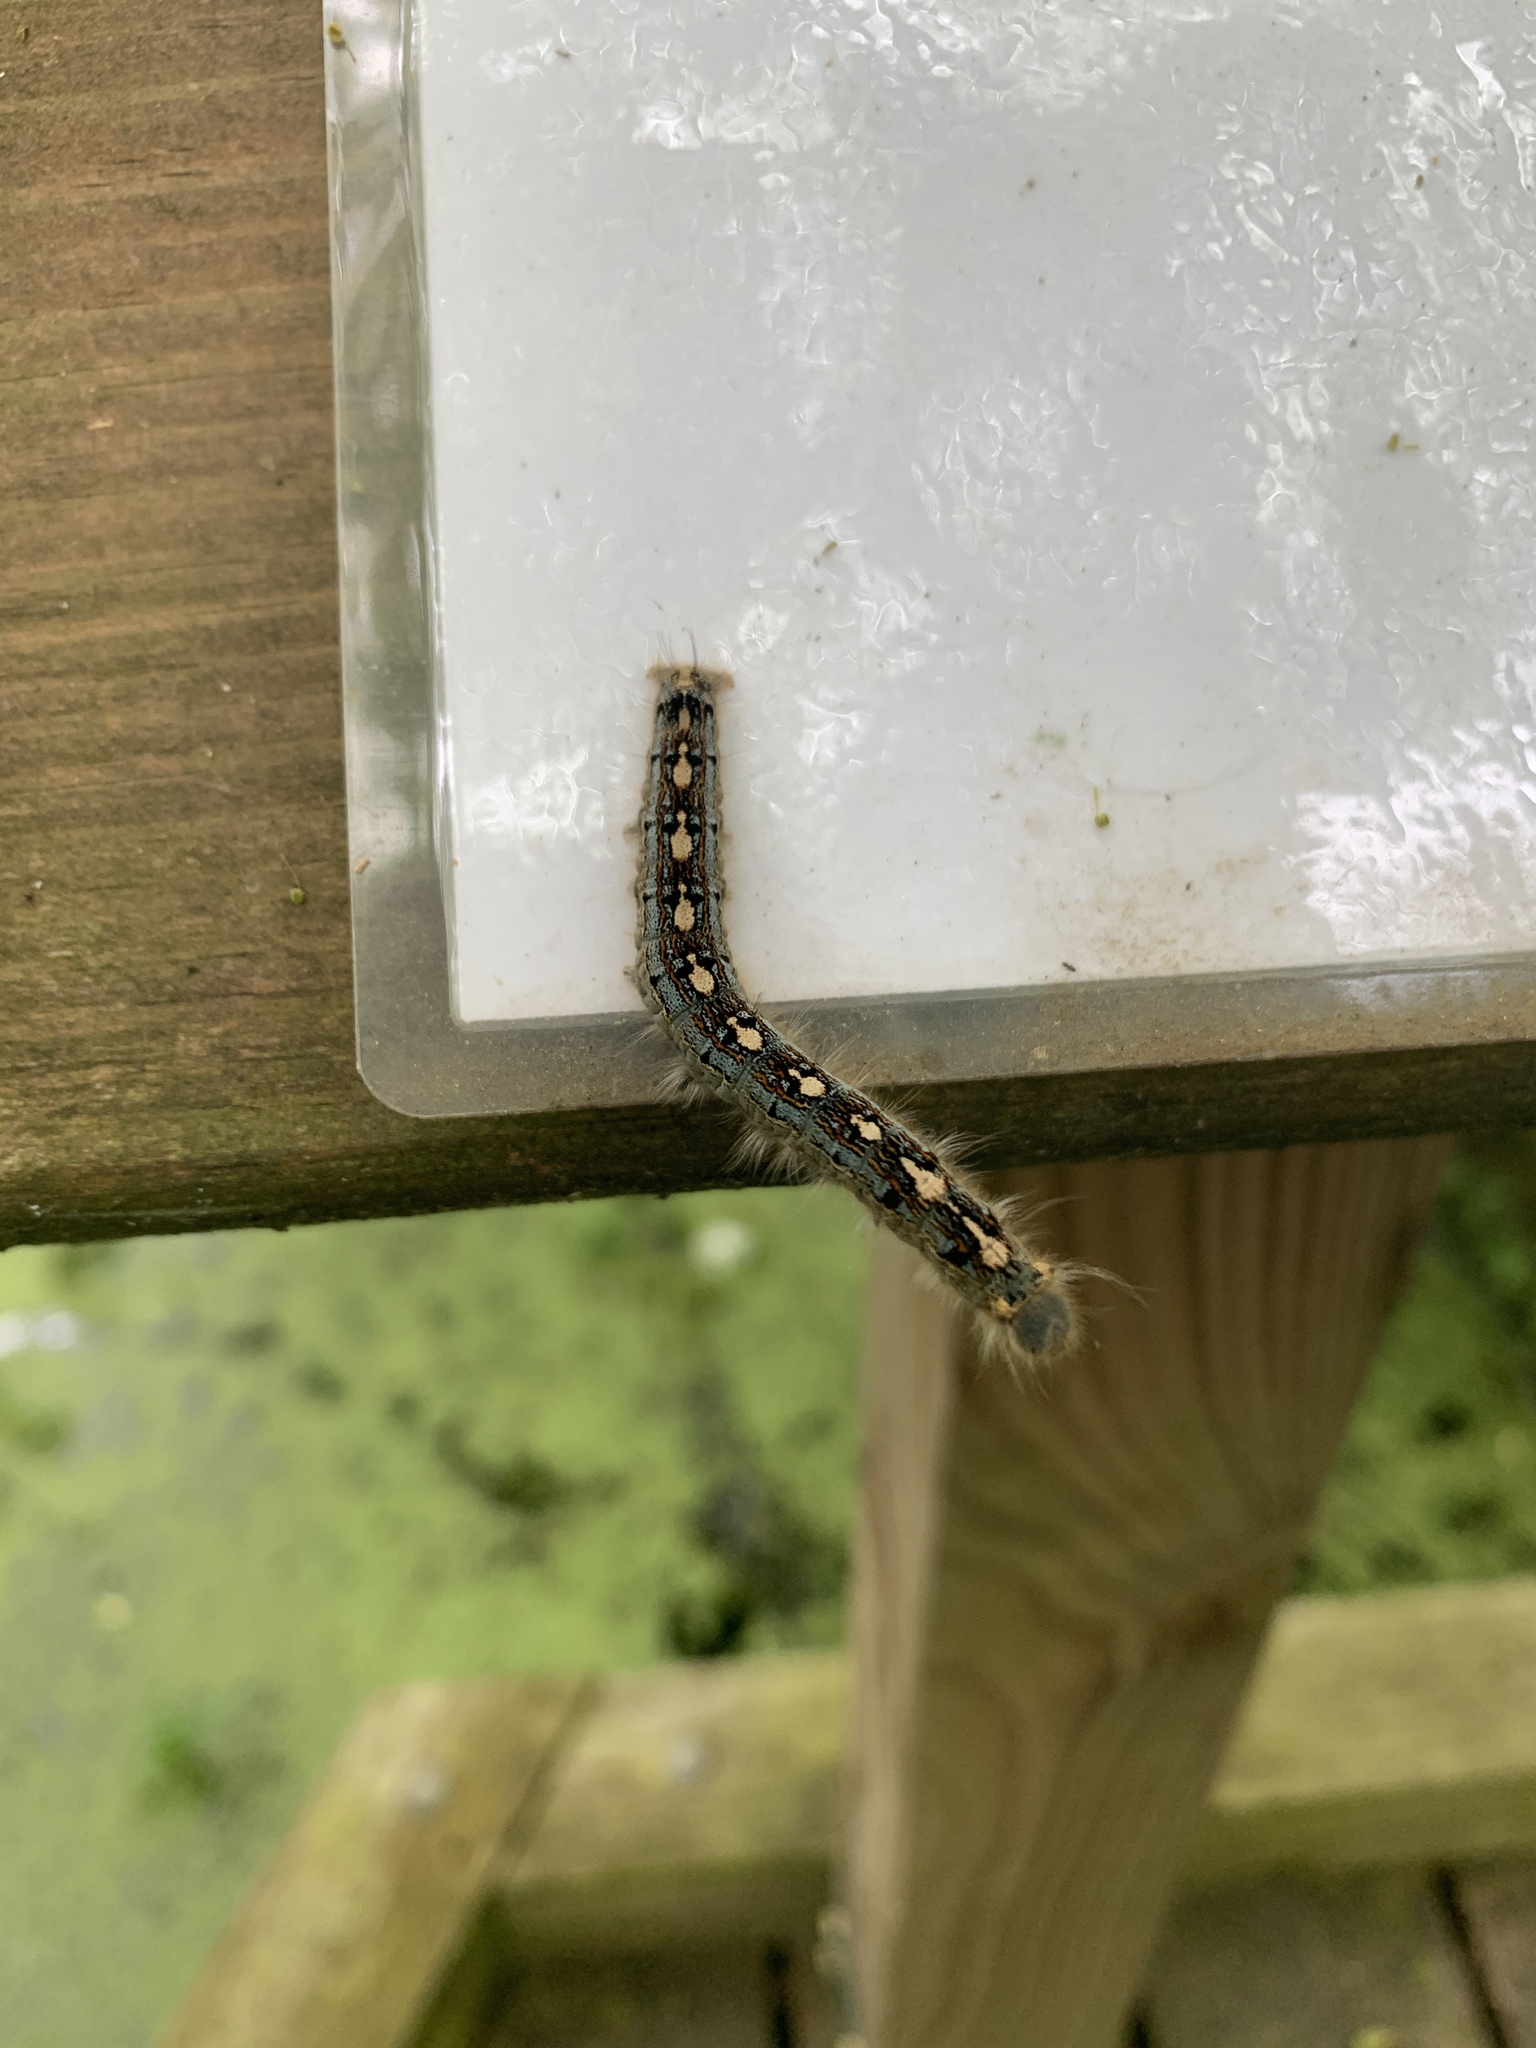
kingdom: Animalia
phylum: Arthropoda
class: Insecta
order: Lepidoptera
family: Lasiocampidae
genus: Malacosoma
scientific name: Malacosoma disstria
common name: Forest tent caterpillar
